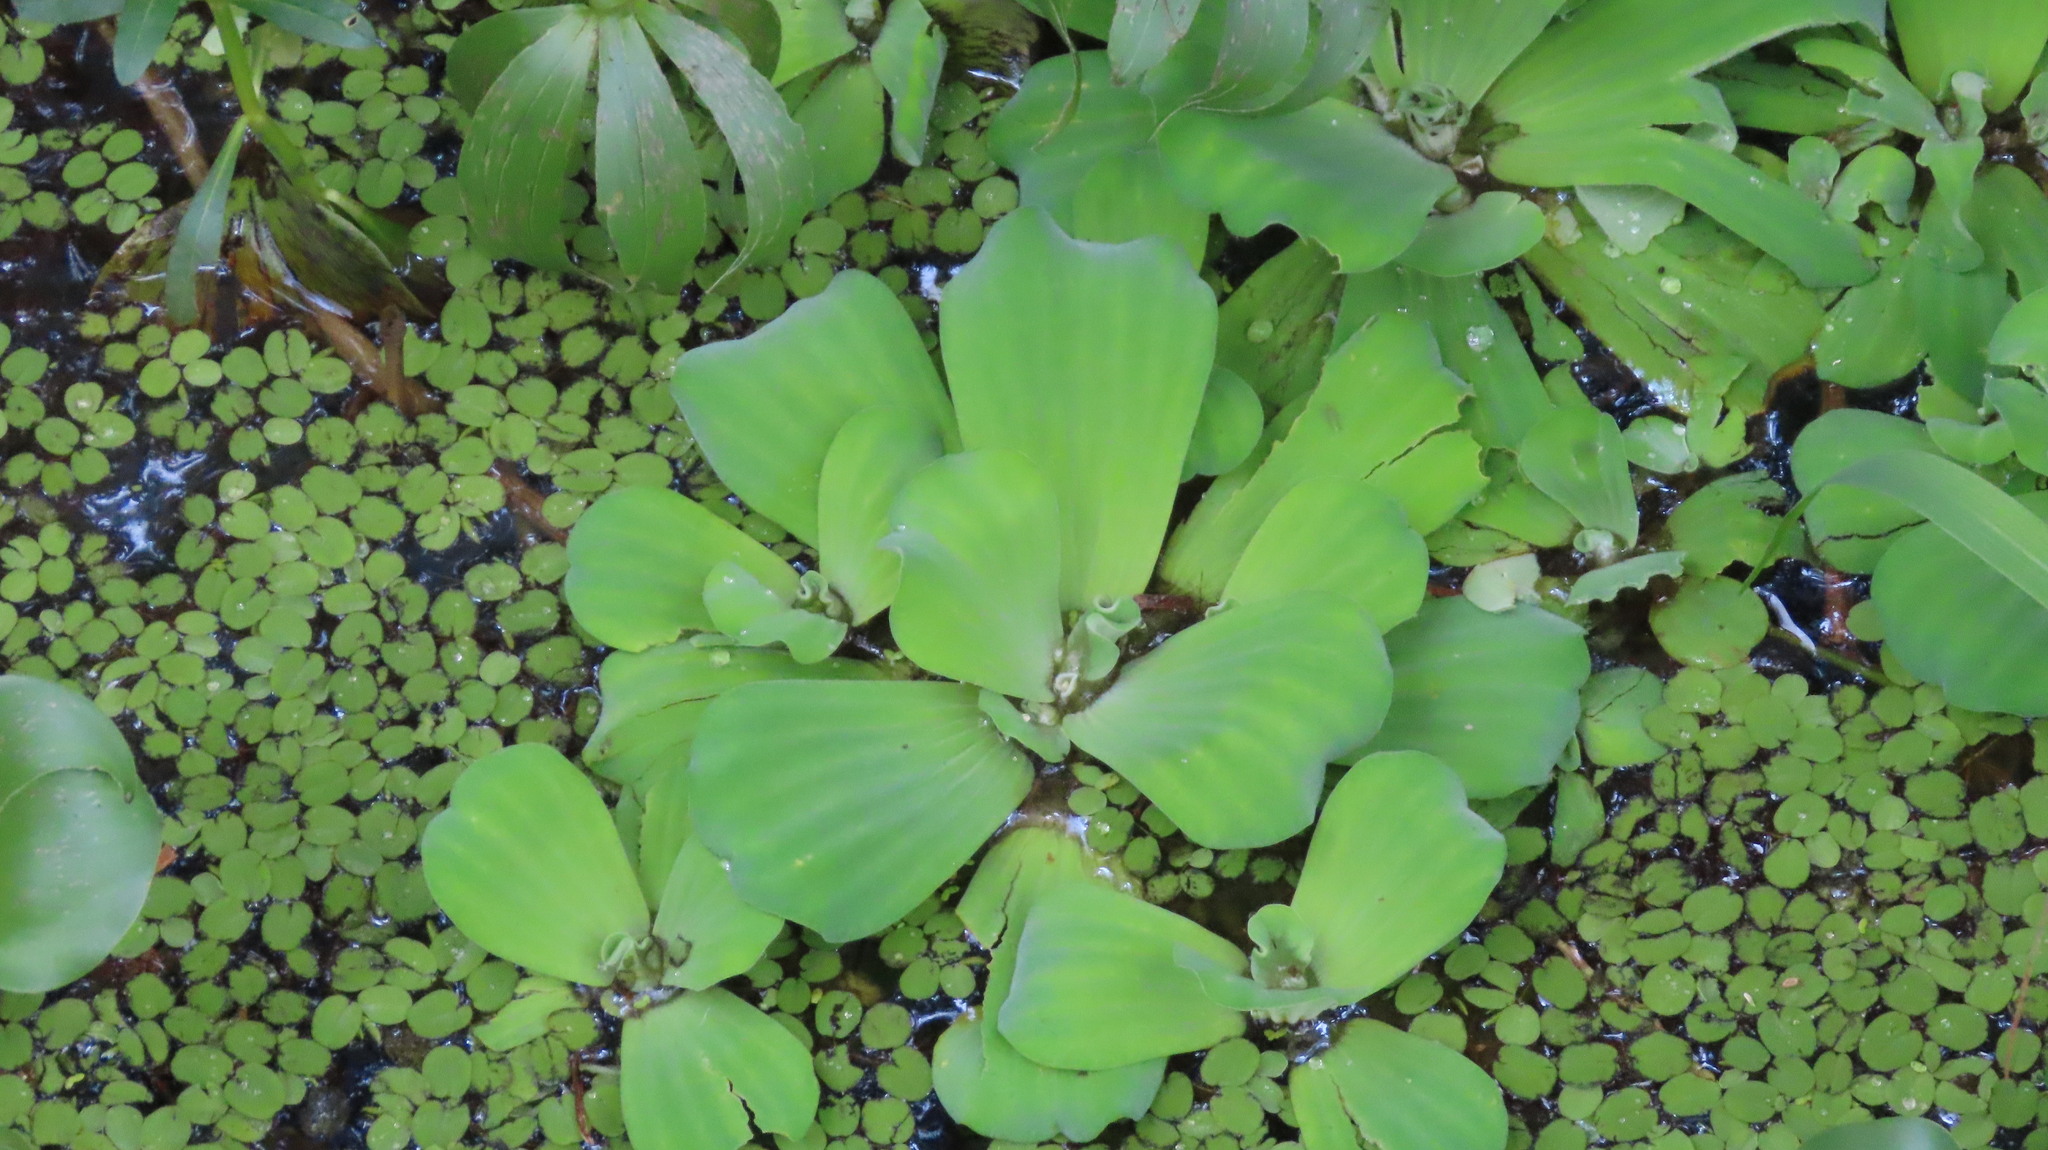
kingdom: Plantae
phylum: Tracheophyta
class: Liliopsida
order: Alismatales
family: Araceae
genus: Pistia
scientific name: Pistia stratiotes
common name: Water lettuce
